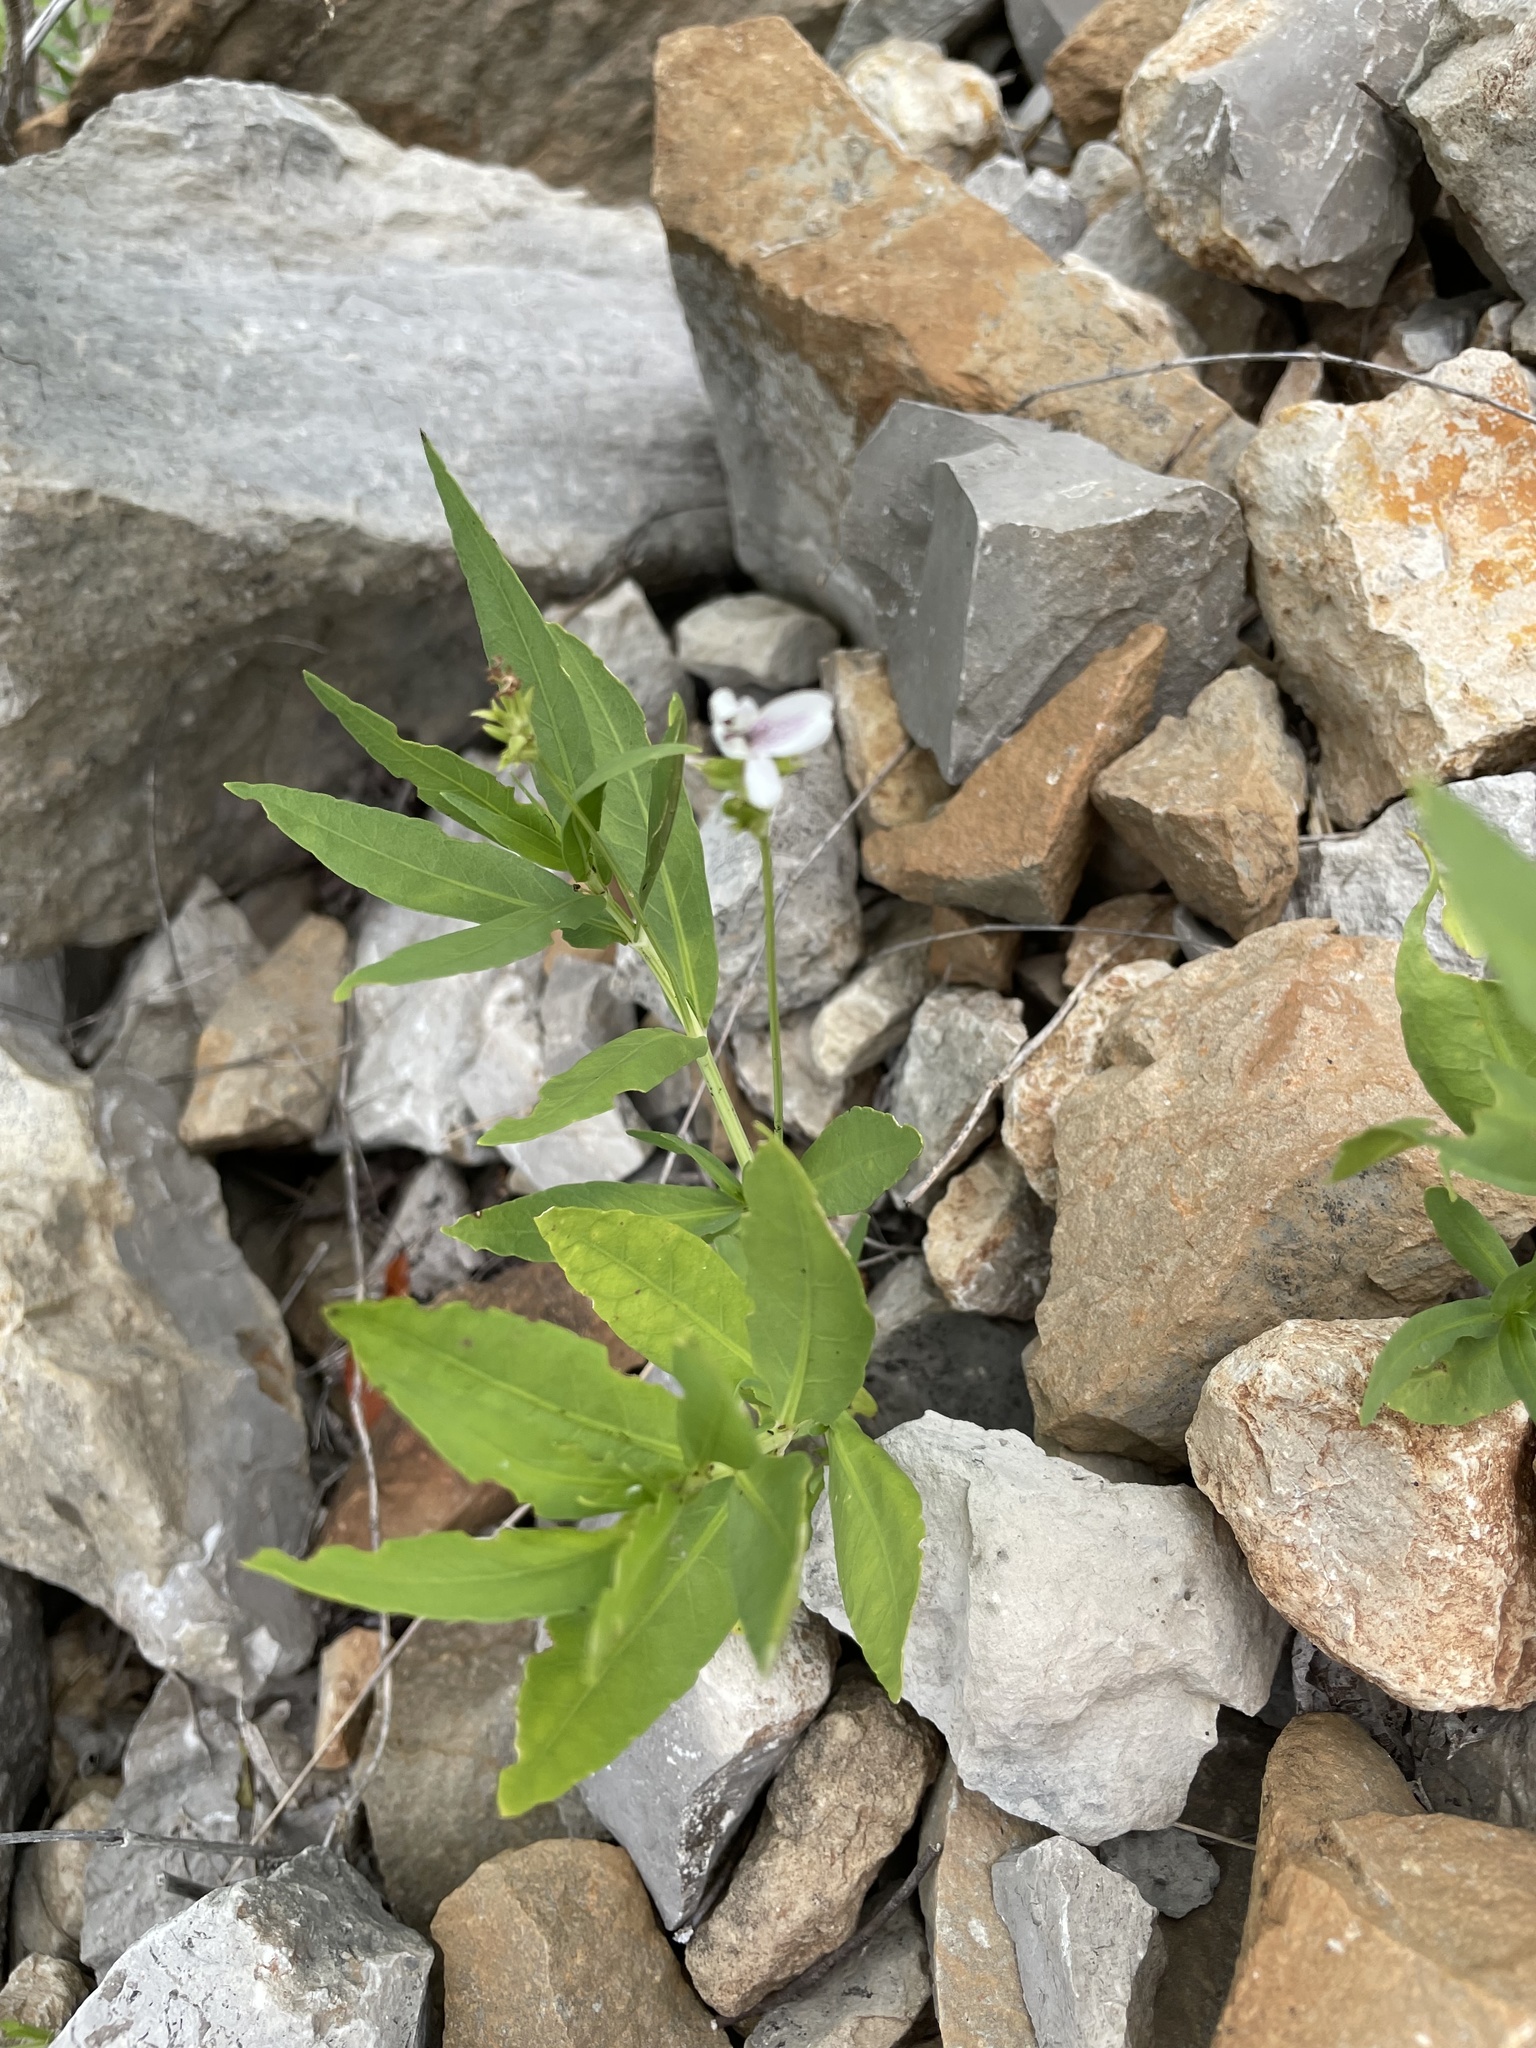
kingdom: Plantae
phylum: Tracheophyta
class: Magnoliopsida
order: Lamiales
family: Acanthaceae
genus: Dianthera
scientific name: Dianthera americana
